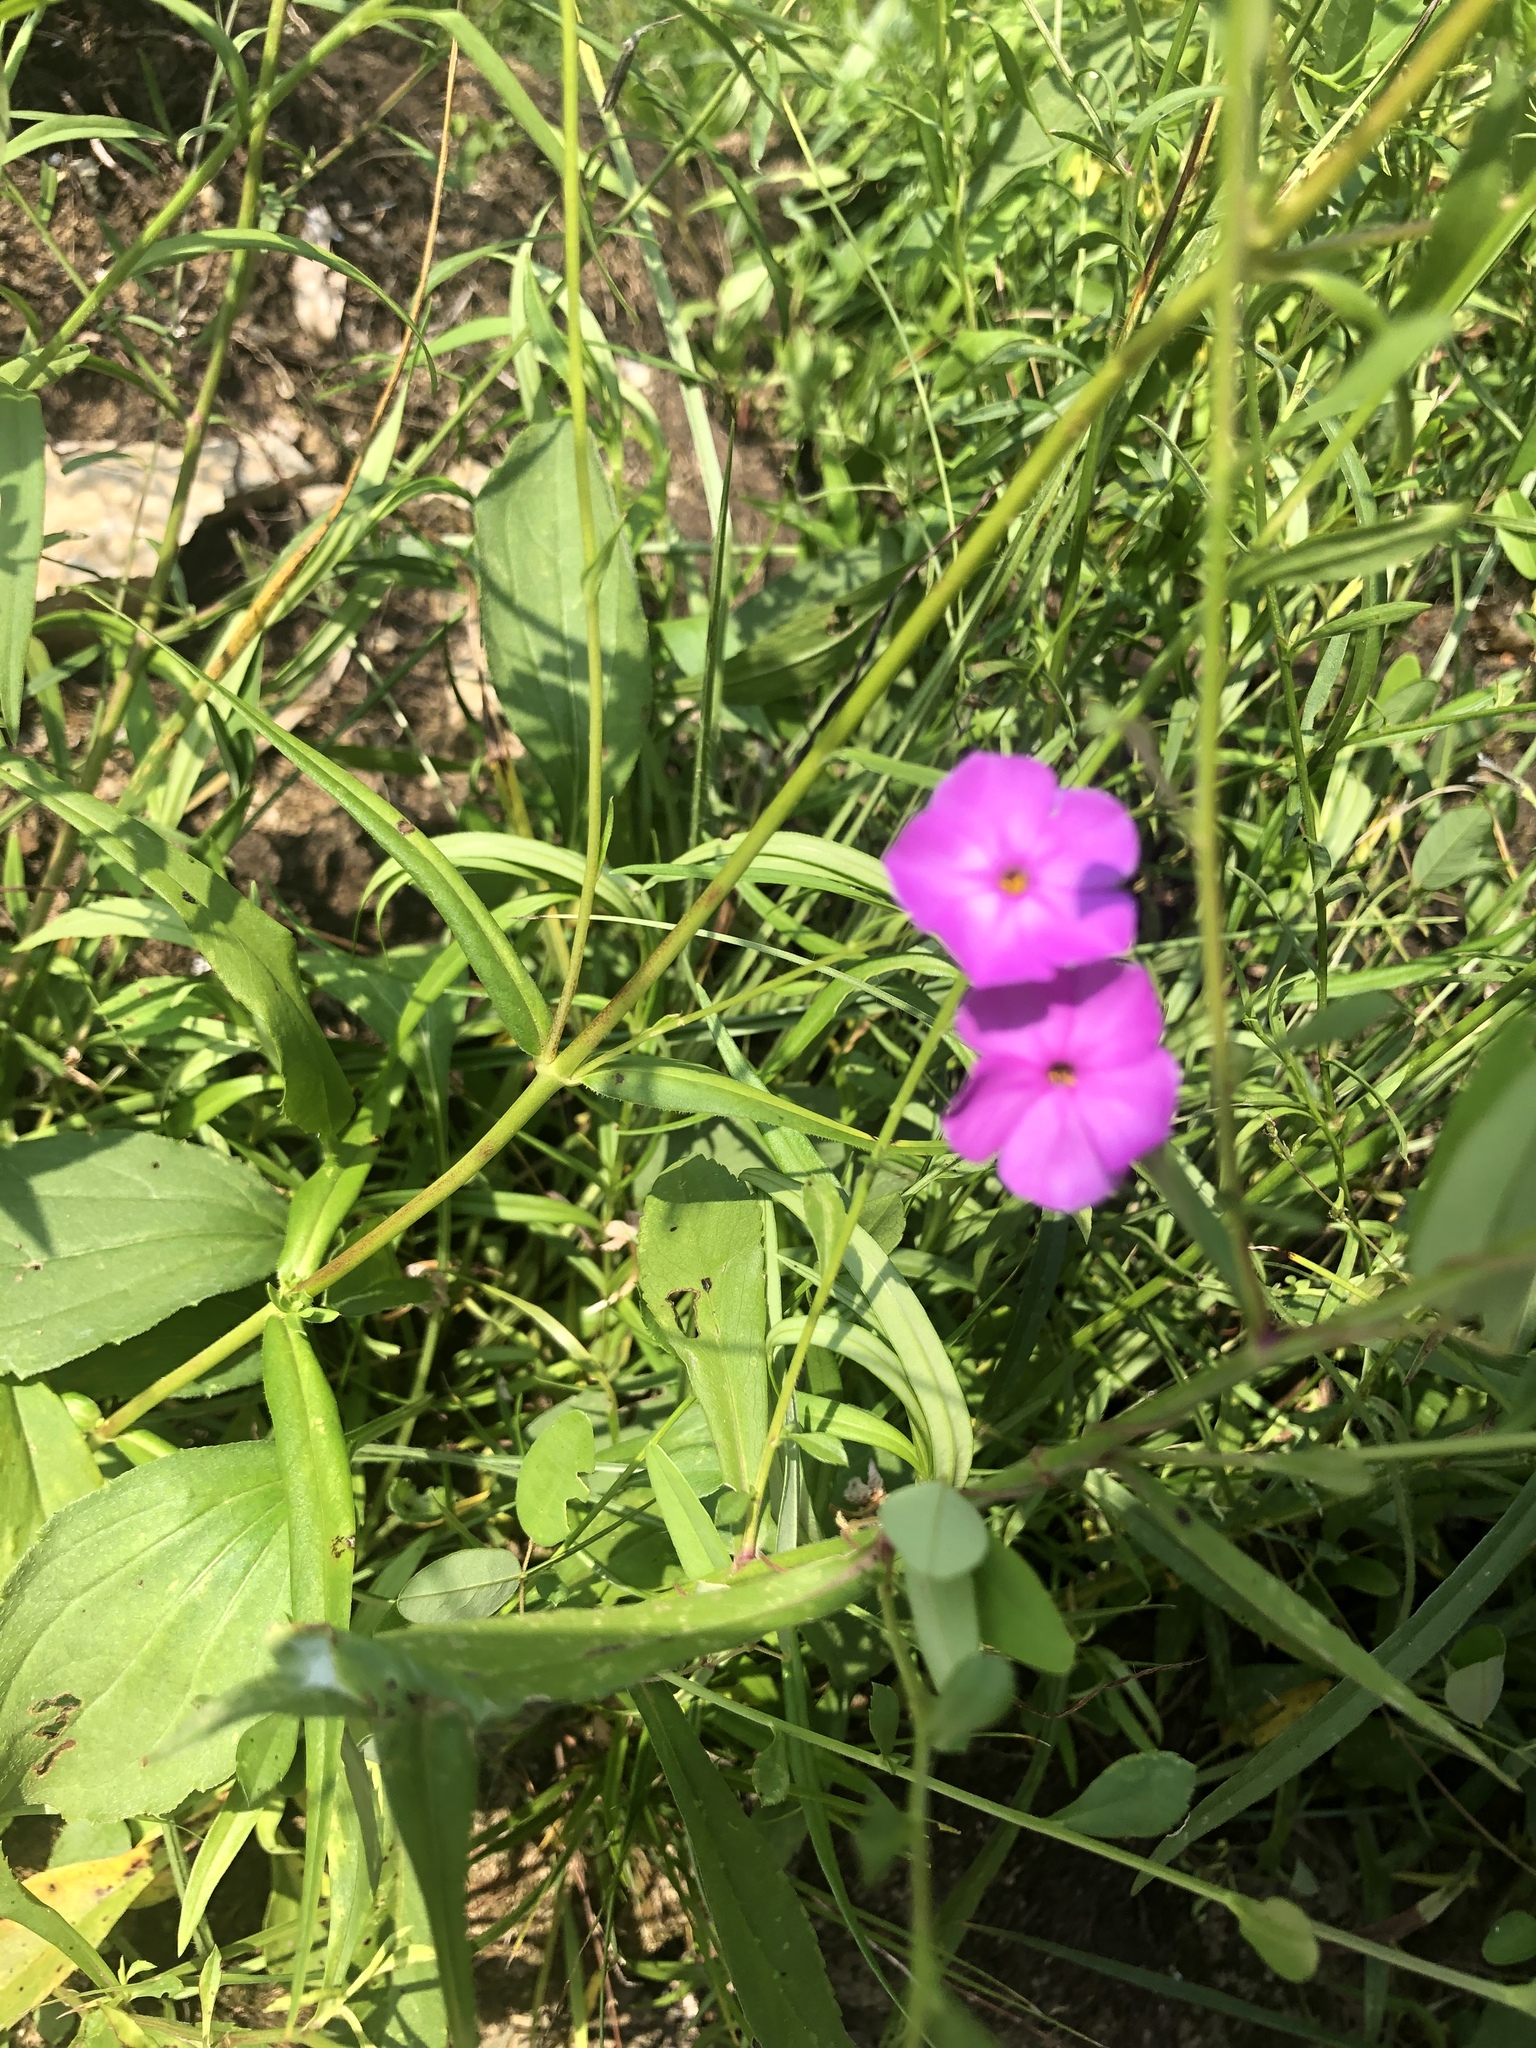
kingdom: Plantae
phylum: Tracheophyta
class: Magnoliopsida
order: Ericales
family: Polemoniaceae
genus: Phlox
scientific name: Phlox carolina
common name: Thick-leaf phlox
